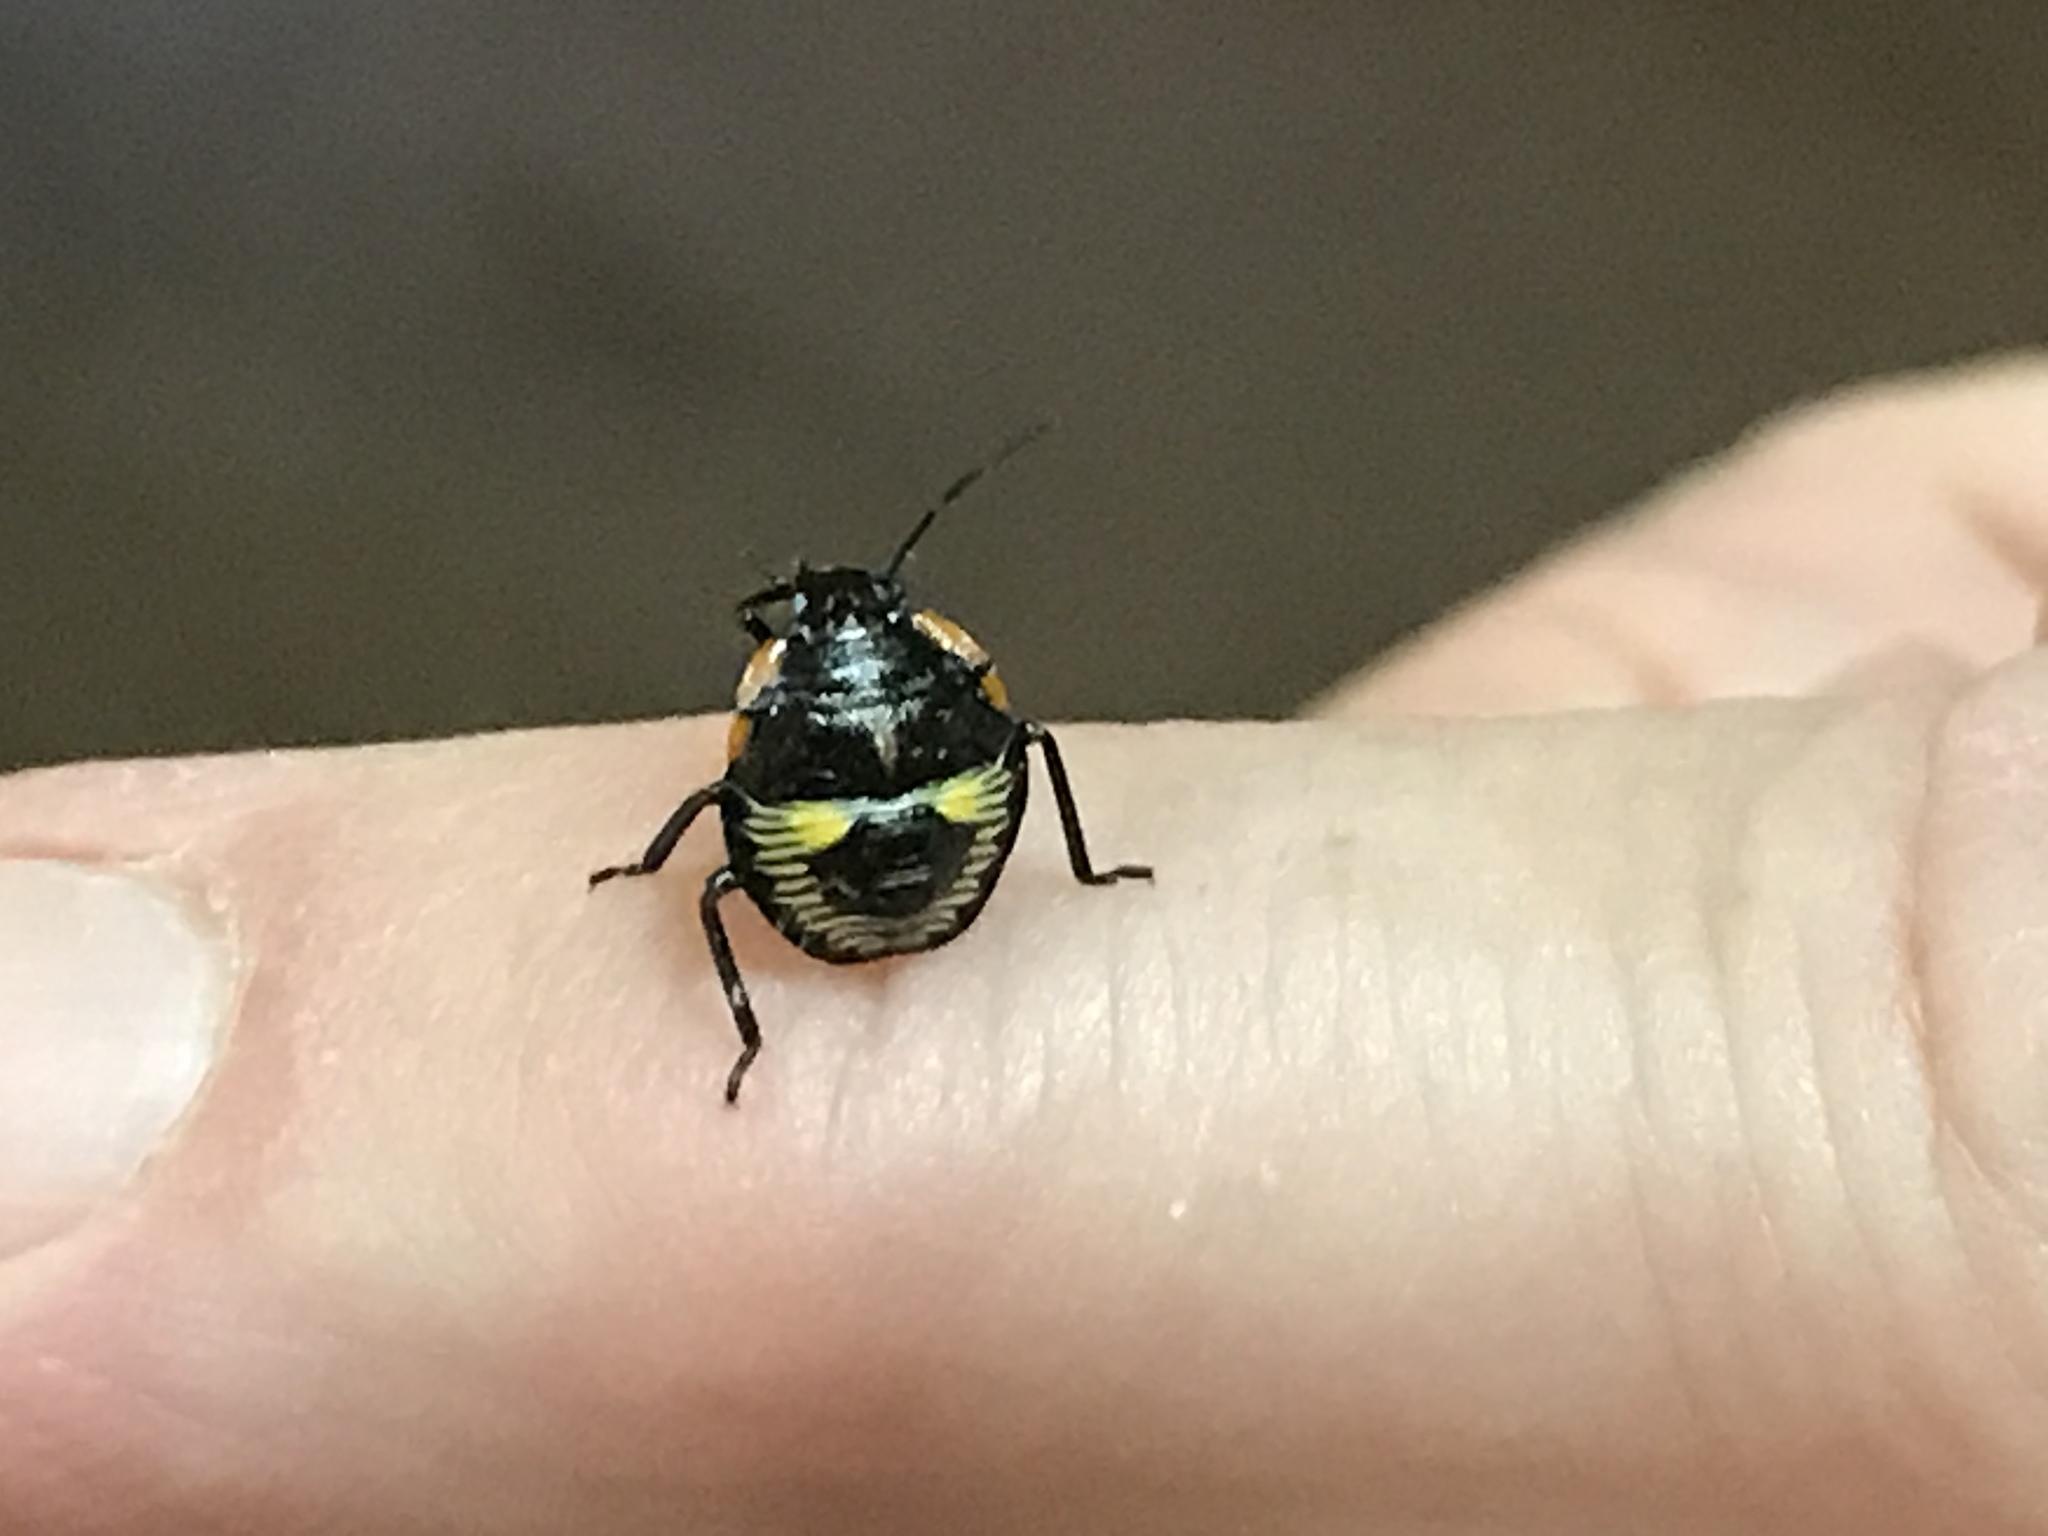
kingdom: Animalia
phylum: Arthropoda
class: Insecta
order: Hemiptera
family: Pentatomidae
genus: Chinavia
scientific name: Chinavia hilaris
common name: Green stink bug
